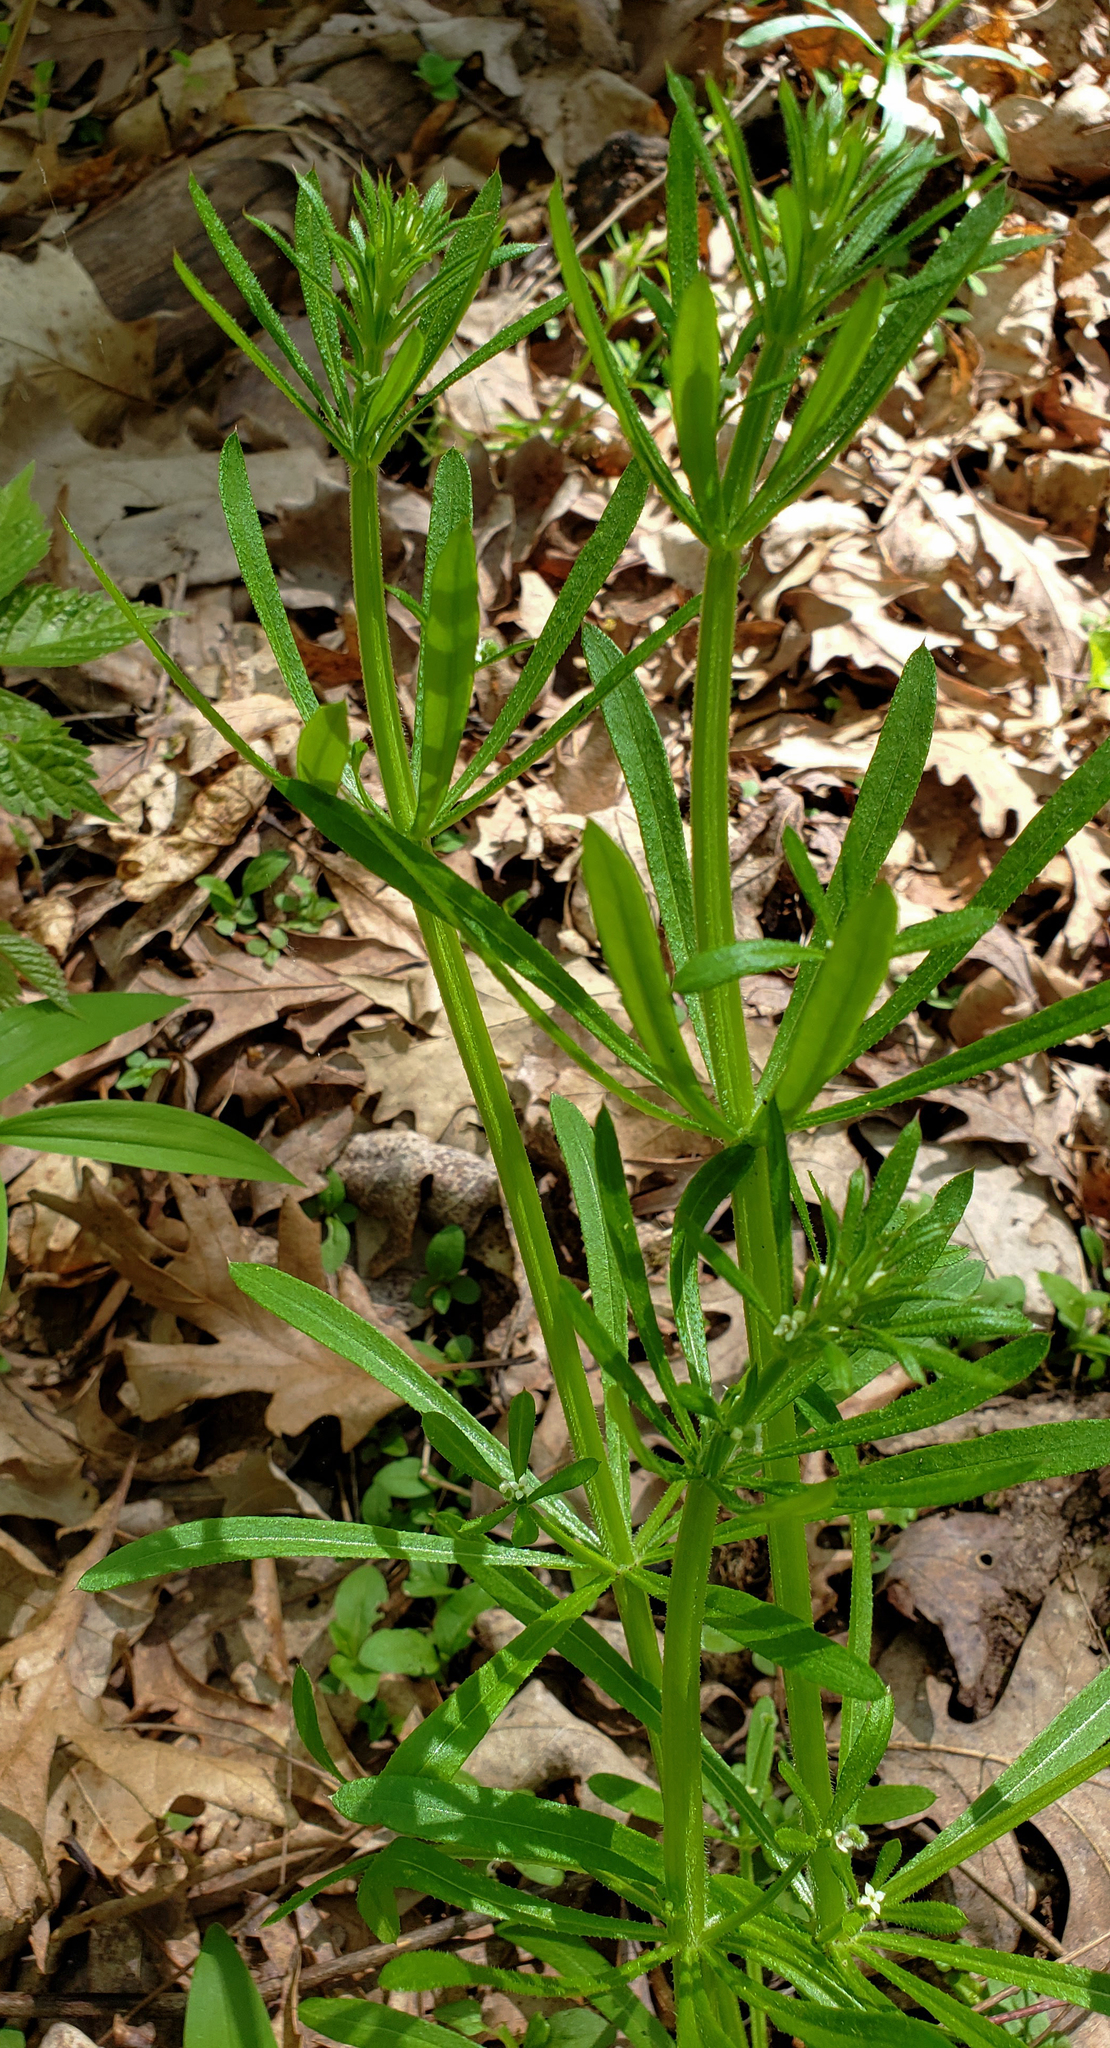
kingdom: Plantae
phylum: Tracheophyta
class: Magnoliopsida
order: Gentianales
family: Rubiaceae
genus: Galium
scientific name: Galium aparine
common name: Cleavers
